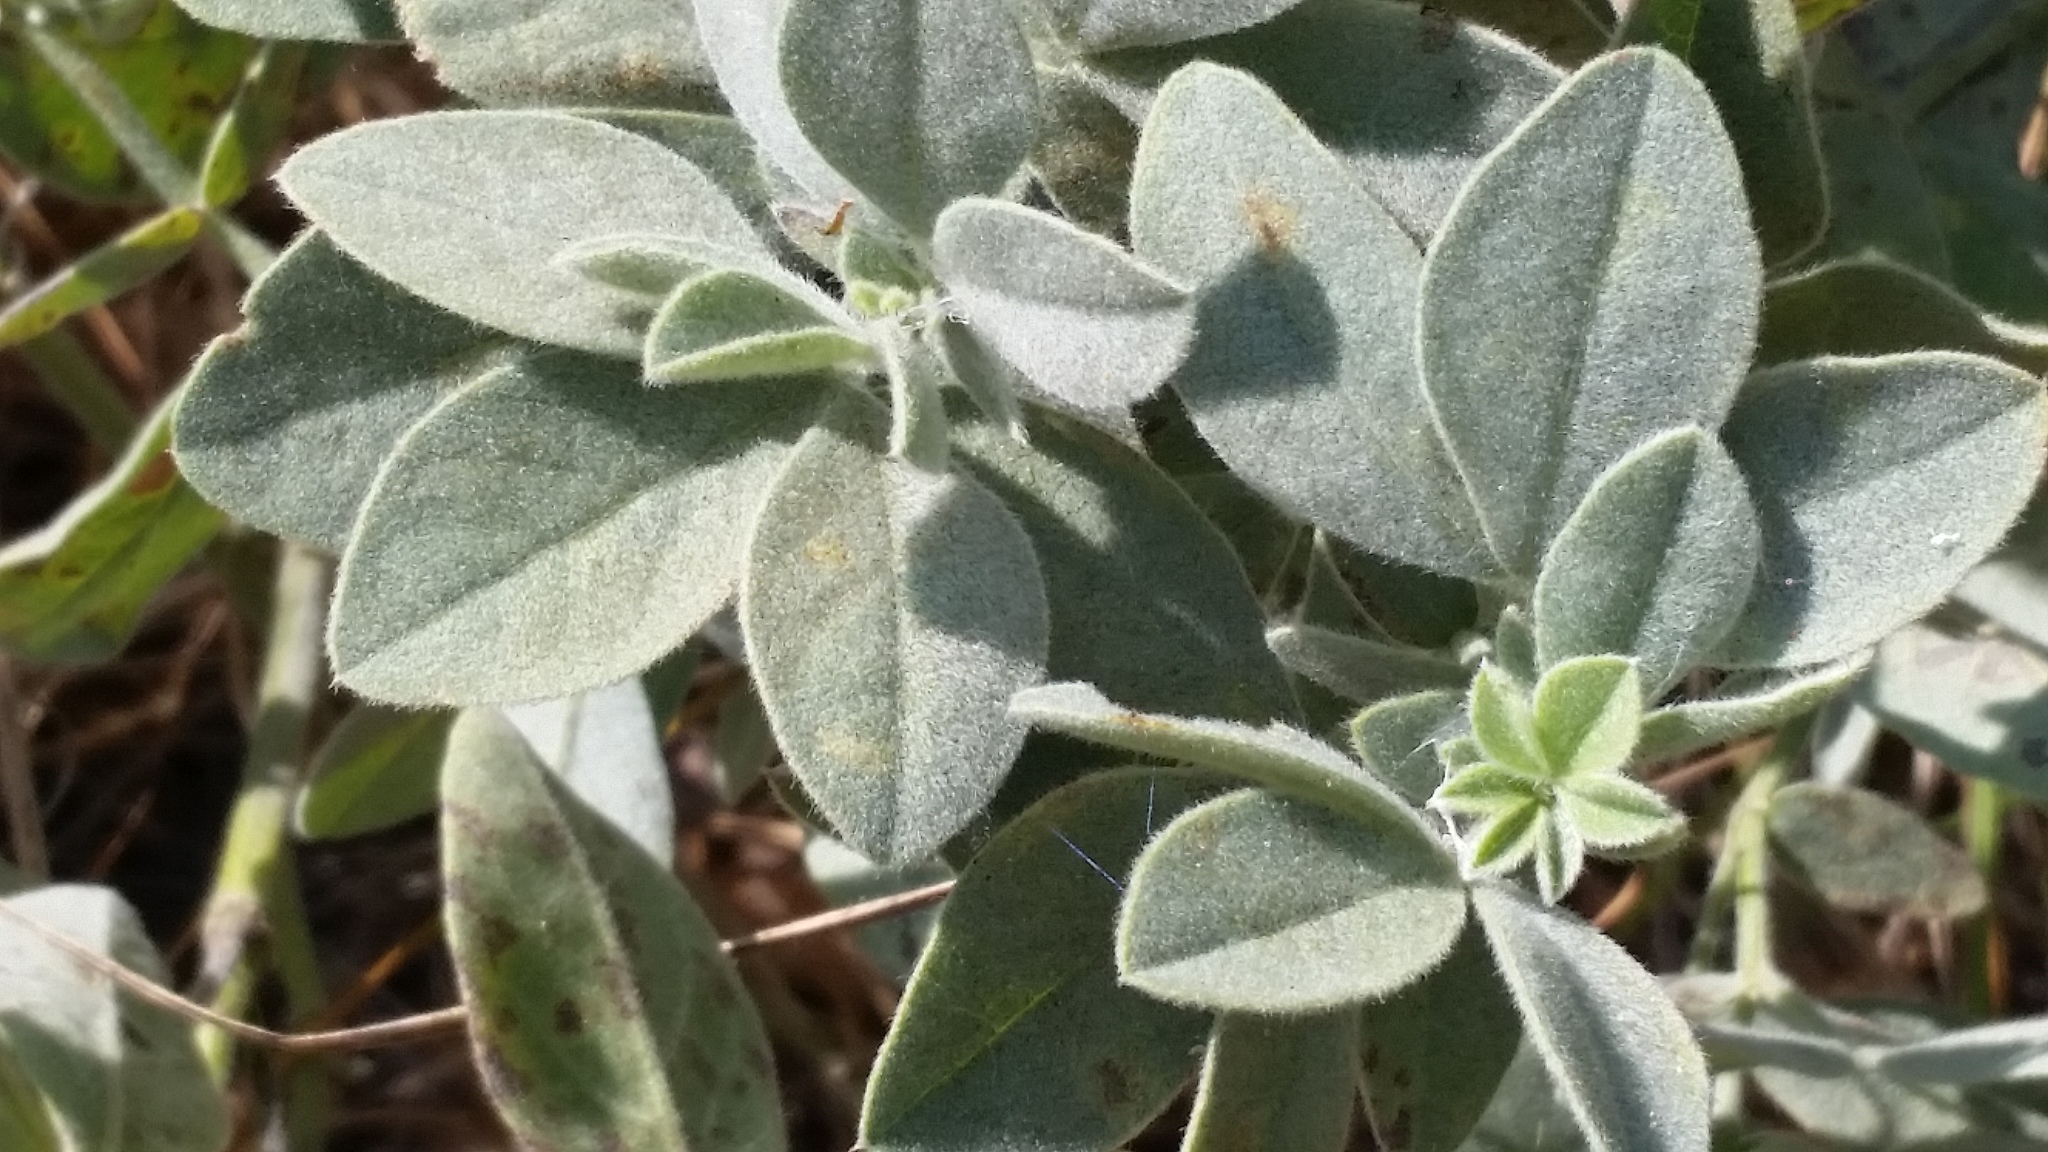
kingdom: Plantae
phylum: Tracheophyta
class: Magnoliopsida
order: Malpighiales
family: Euphorbiaceae
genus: Croton
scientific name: Croton setiger
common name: Dove weed
